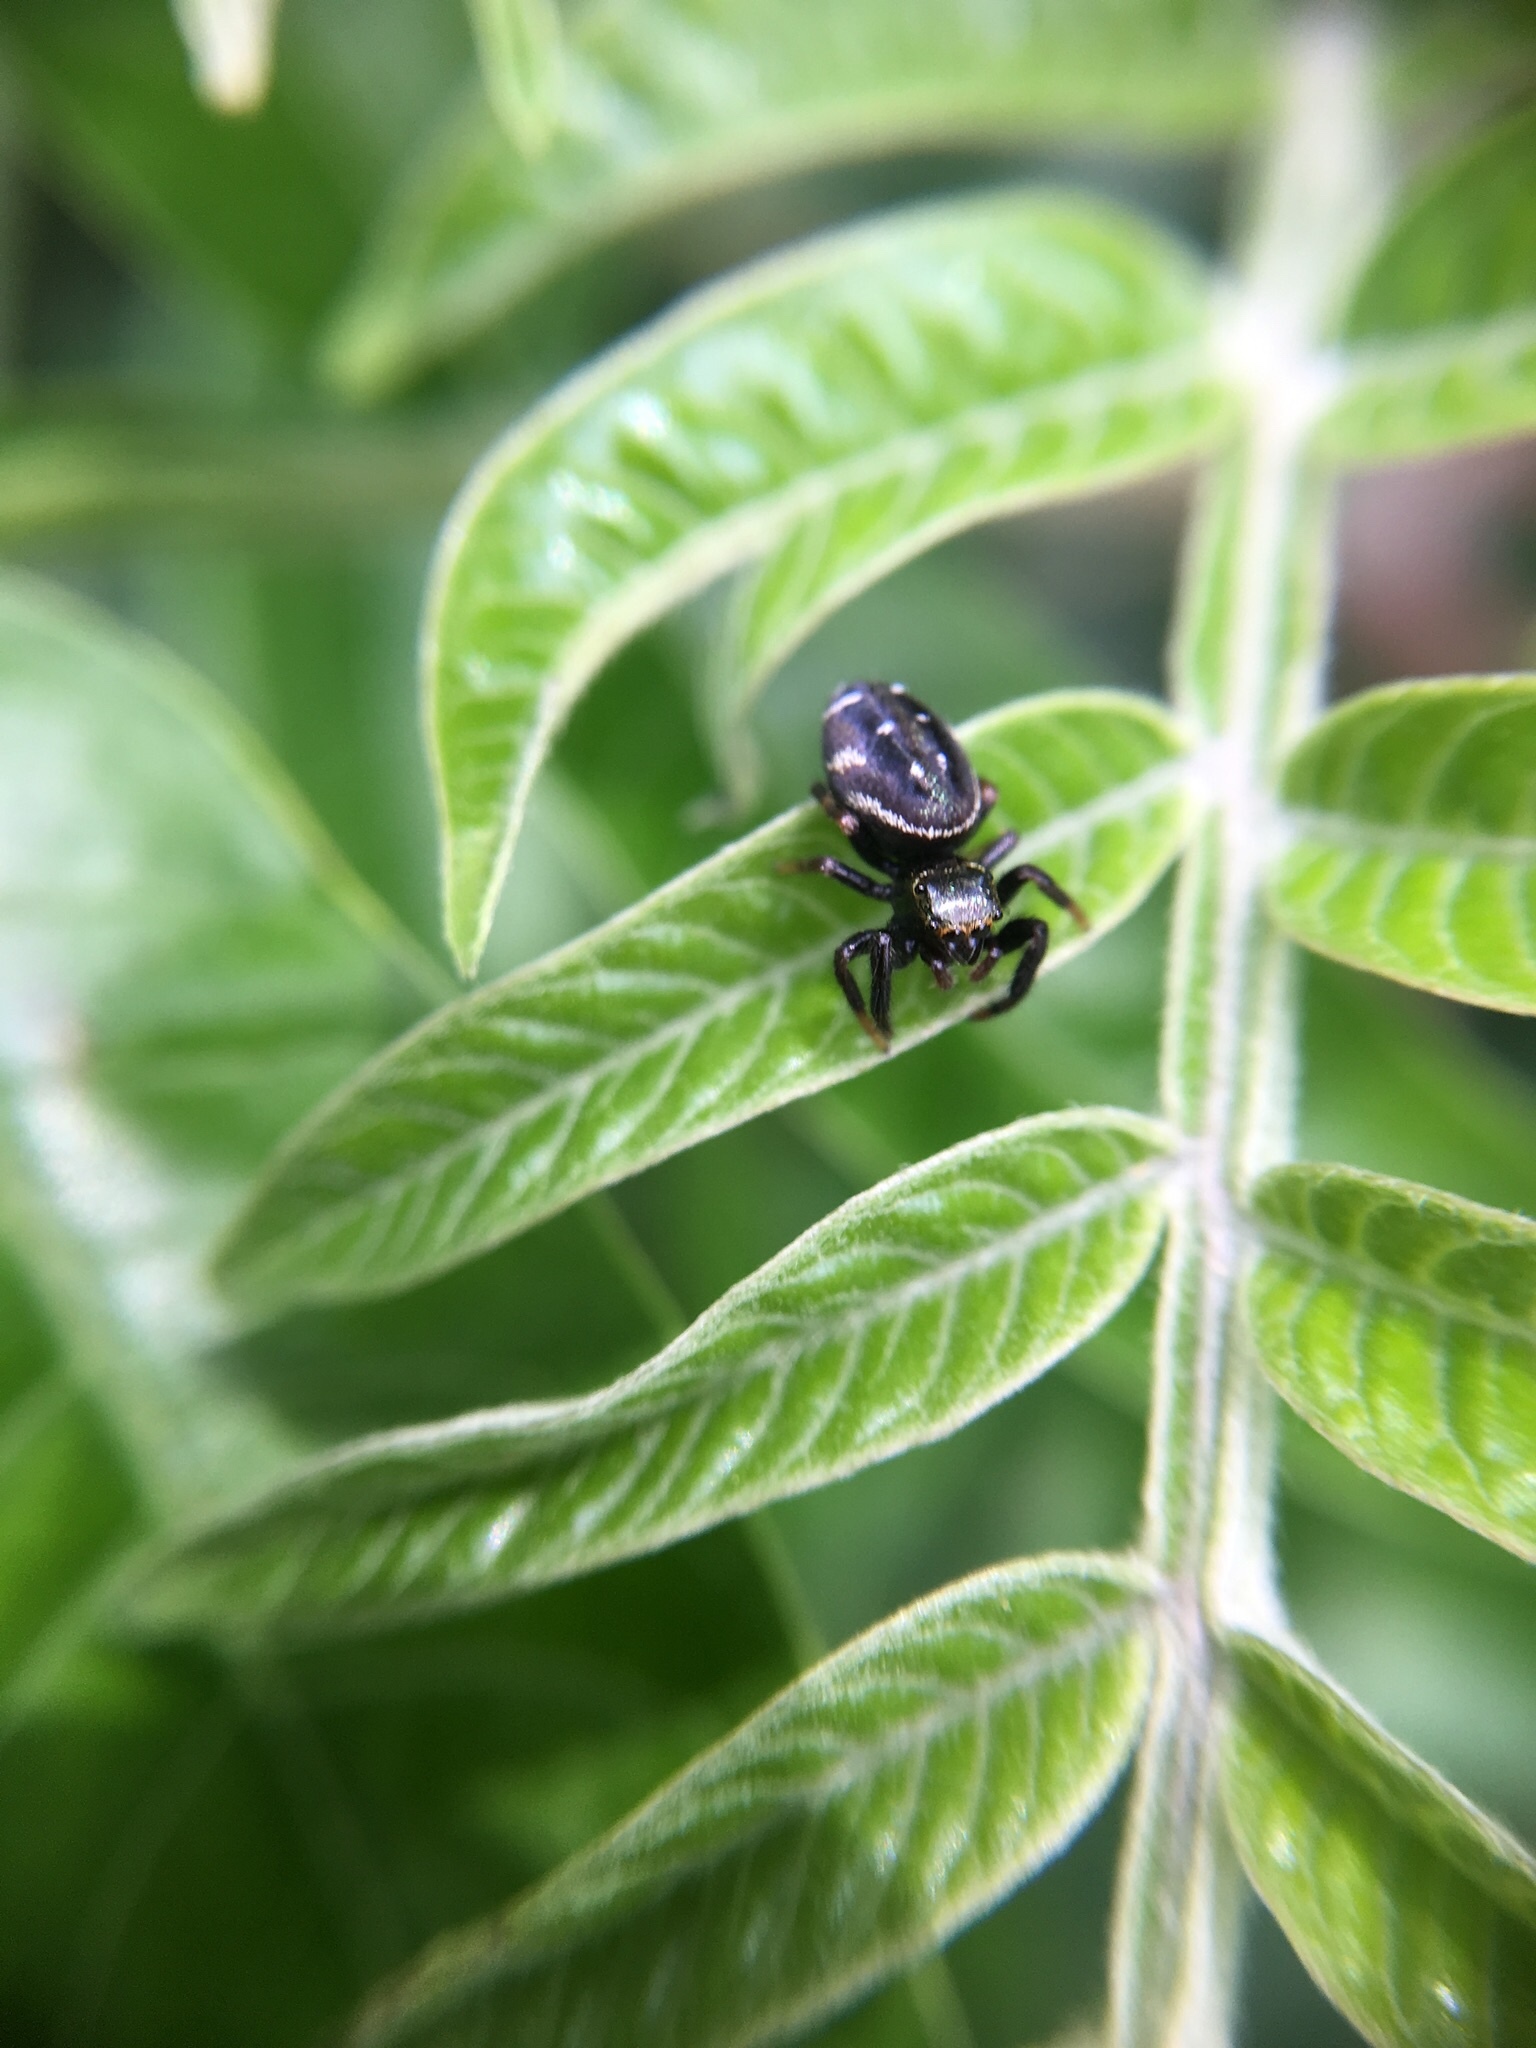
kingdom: Animalia
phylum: Arthropoda
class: Arachnida
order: Araneae
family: Salticidae
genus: Paraphidippus
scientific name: Paraphidippus aurantius
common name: Jumping spiders
